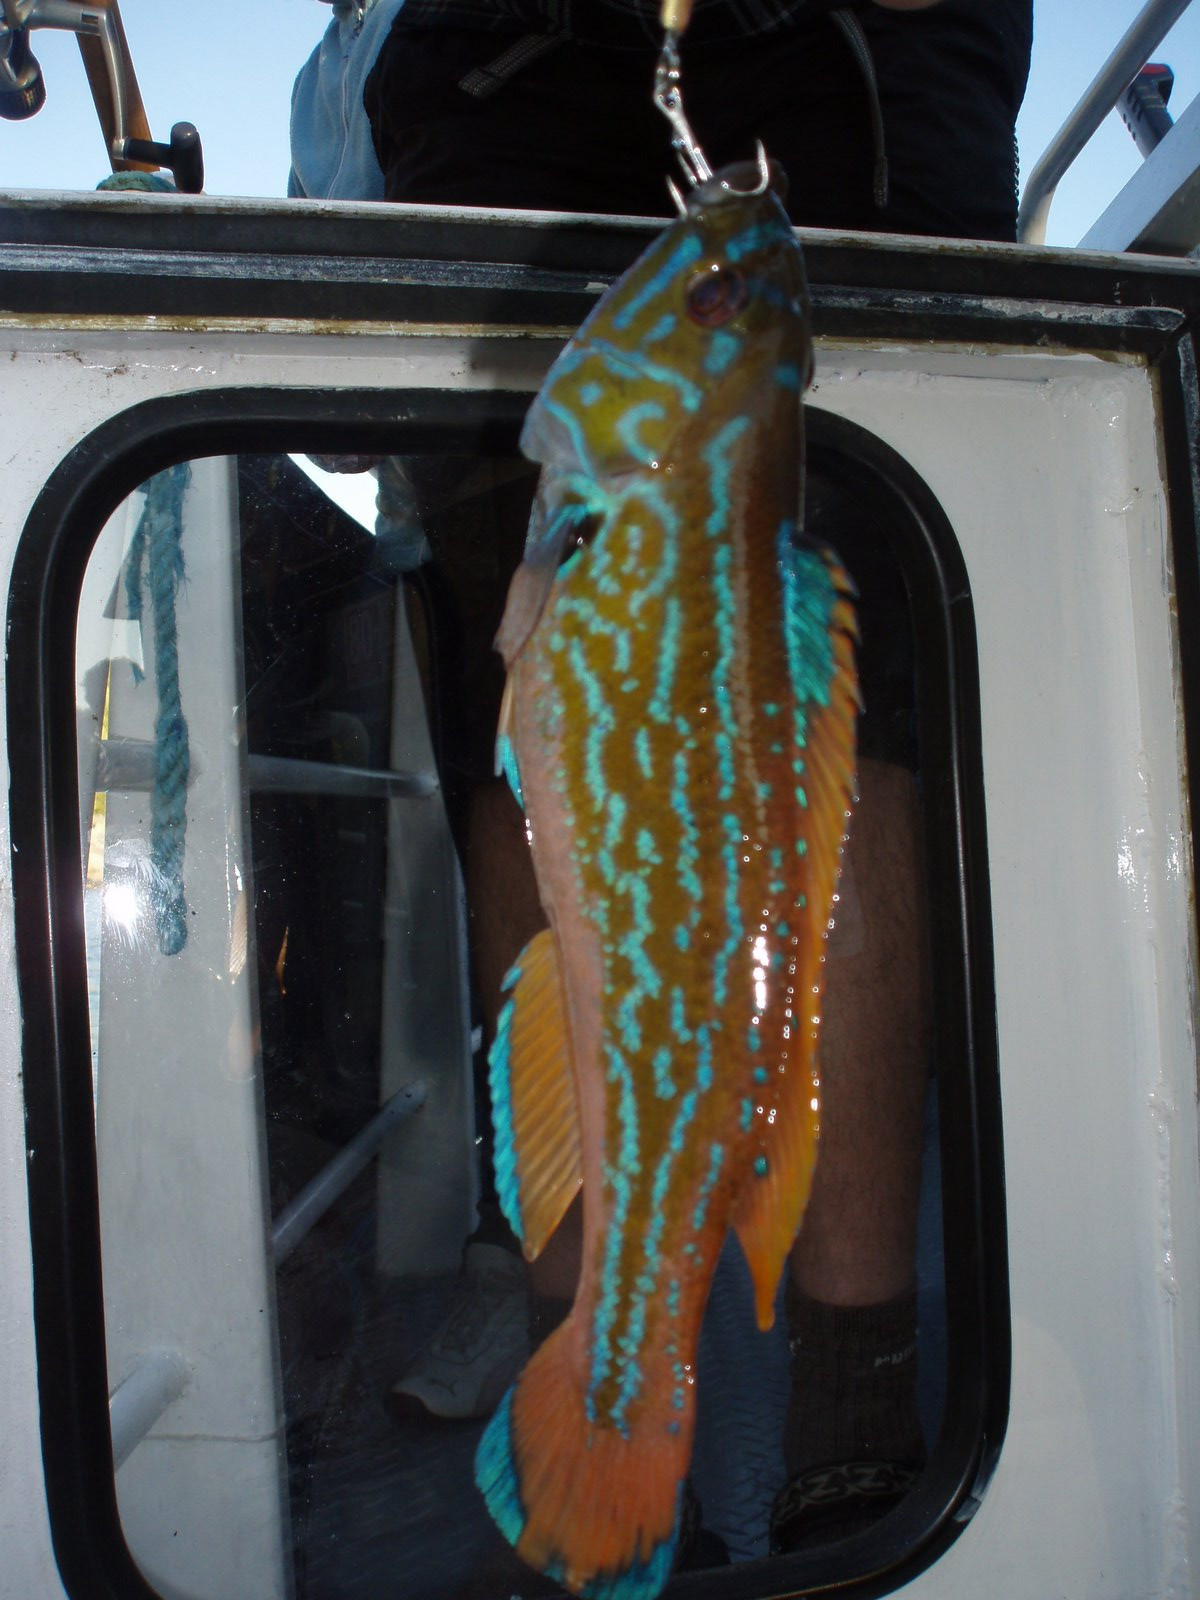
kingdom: Animalia
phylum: Chordata
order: Perciformes
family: Labridae
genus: Labrus
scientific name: Labrus mixtus
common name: Cuckoo wrasse
